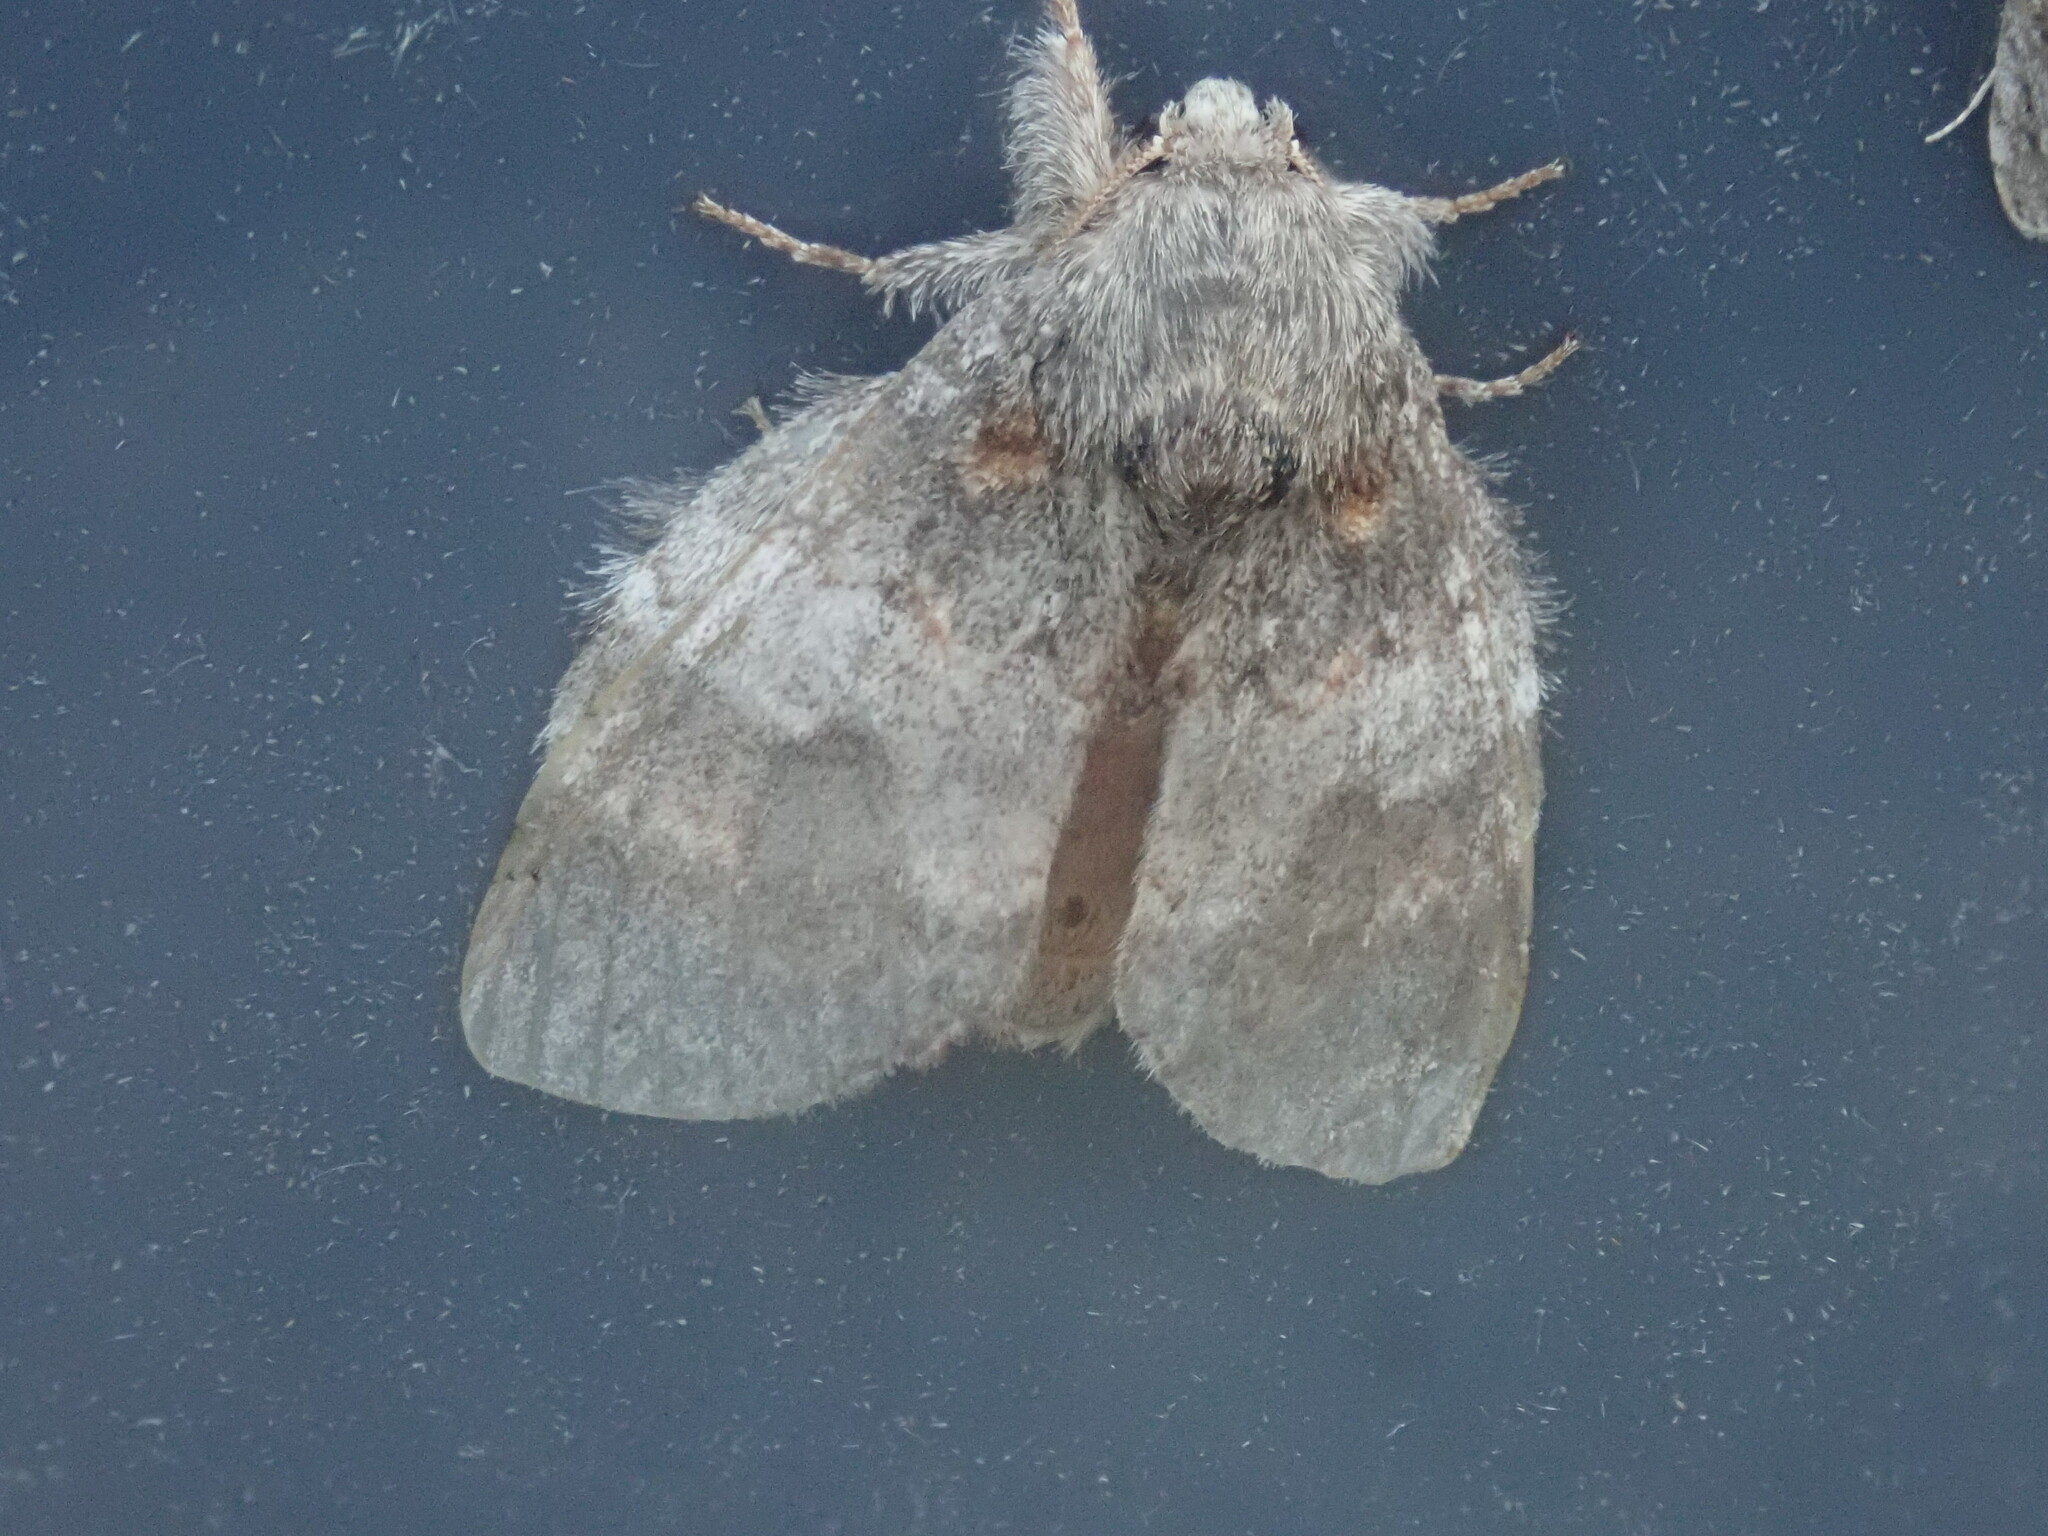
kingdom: Animalia
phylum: Arthropoda
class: Insecta
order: Lepidoptera
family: Notodontidae
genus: Peridea
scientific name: Peridea angulosa
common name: Angulose prominent
